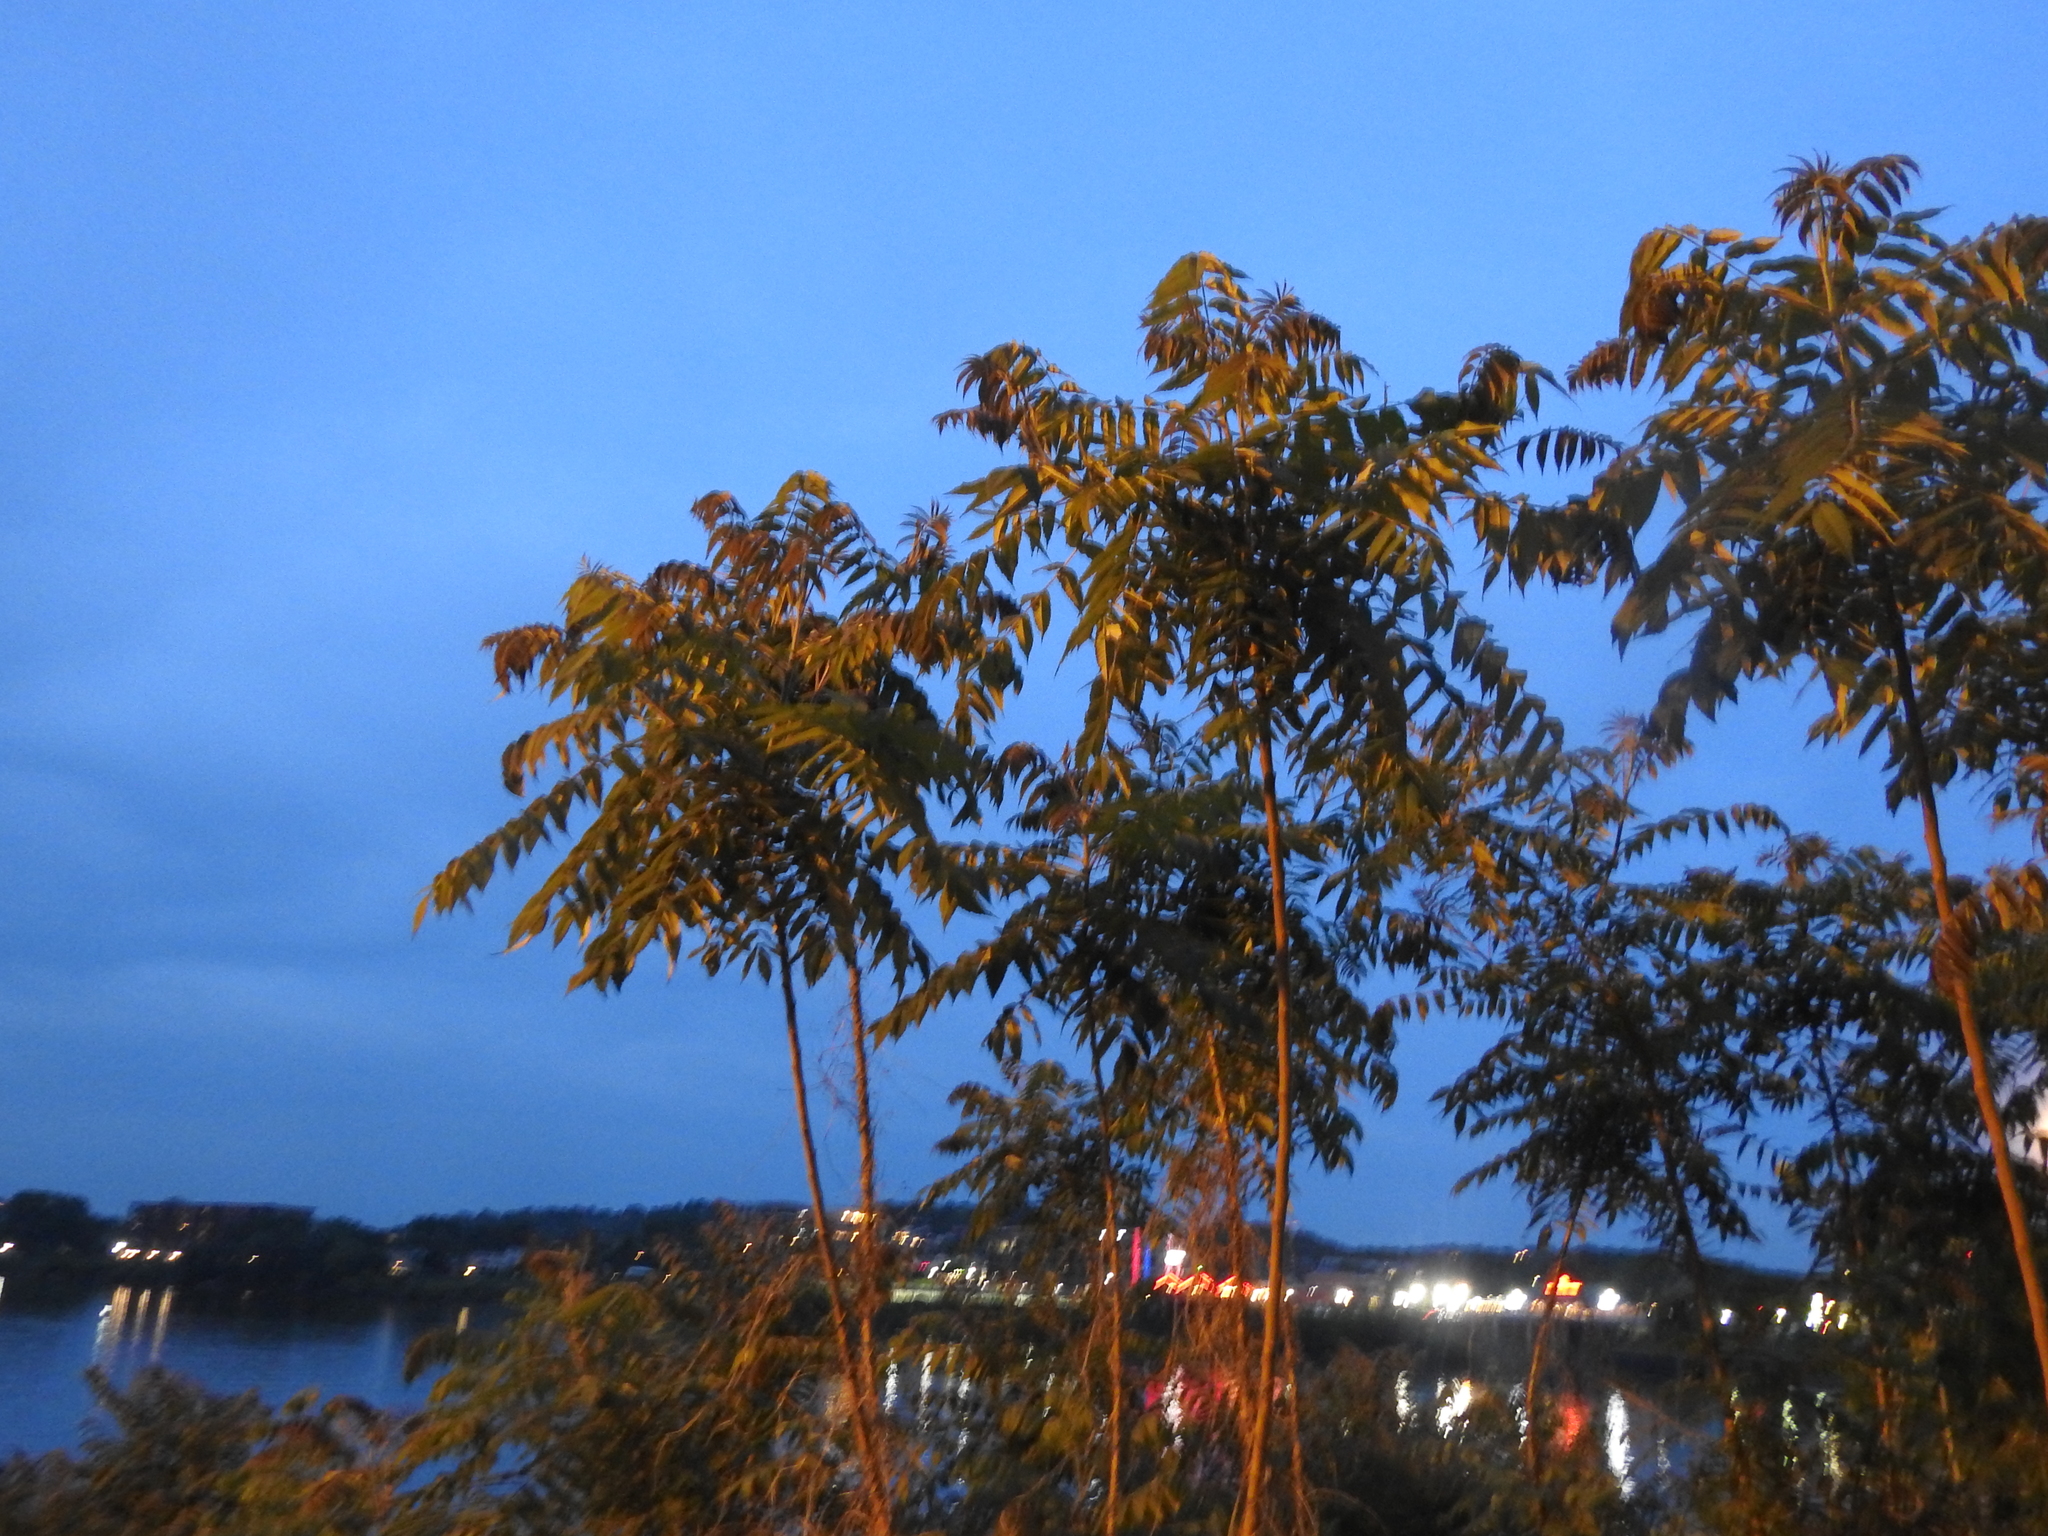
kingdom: Plantae
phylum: Tracheophyta
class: Magnoliopsida
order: Sapindales
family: Simaroubaceae
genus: Ailanthus
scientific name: Ailanthus altissima
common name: Tree-of-heaven
